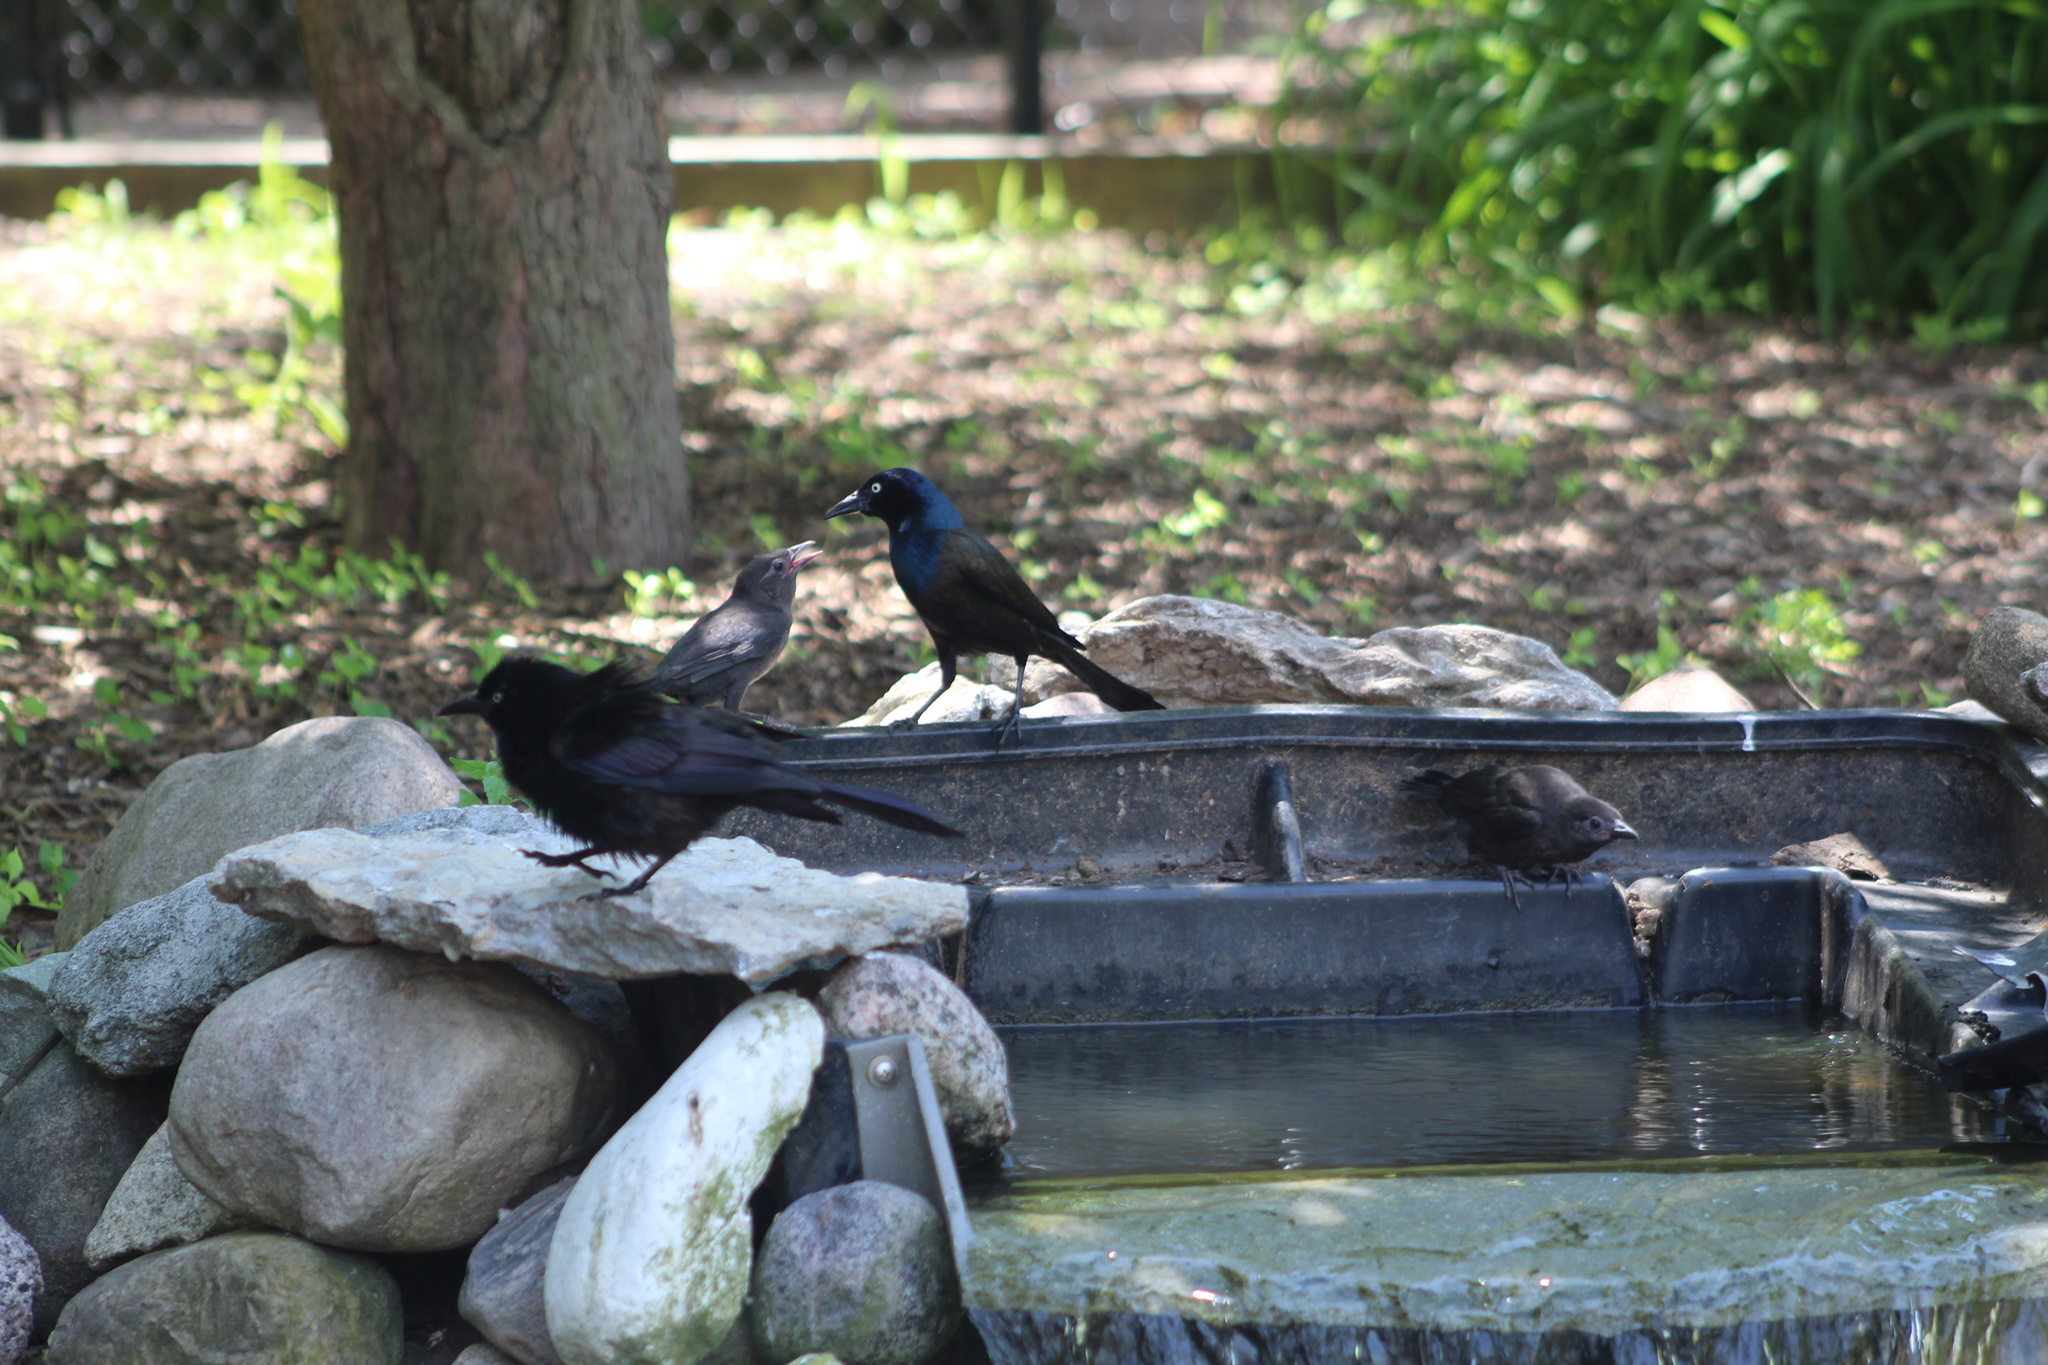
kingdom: Animalia
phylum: Chordata
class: Aves
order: Passeriformes
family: Icteridae
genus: Quiscalus
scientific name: Quiscalus quiscula
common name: Common grackle
